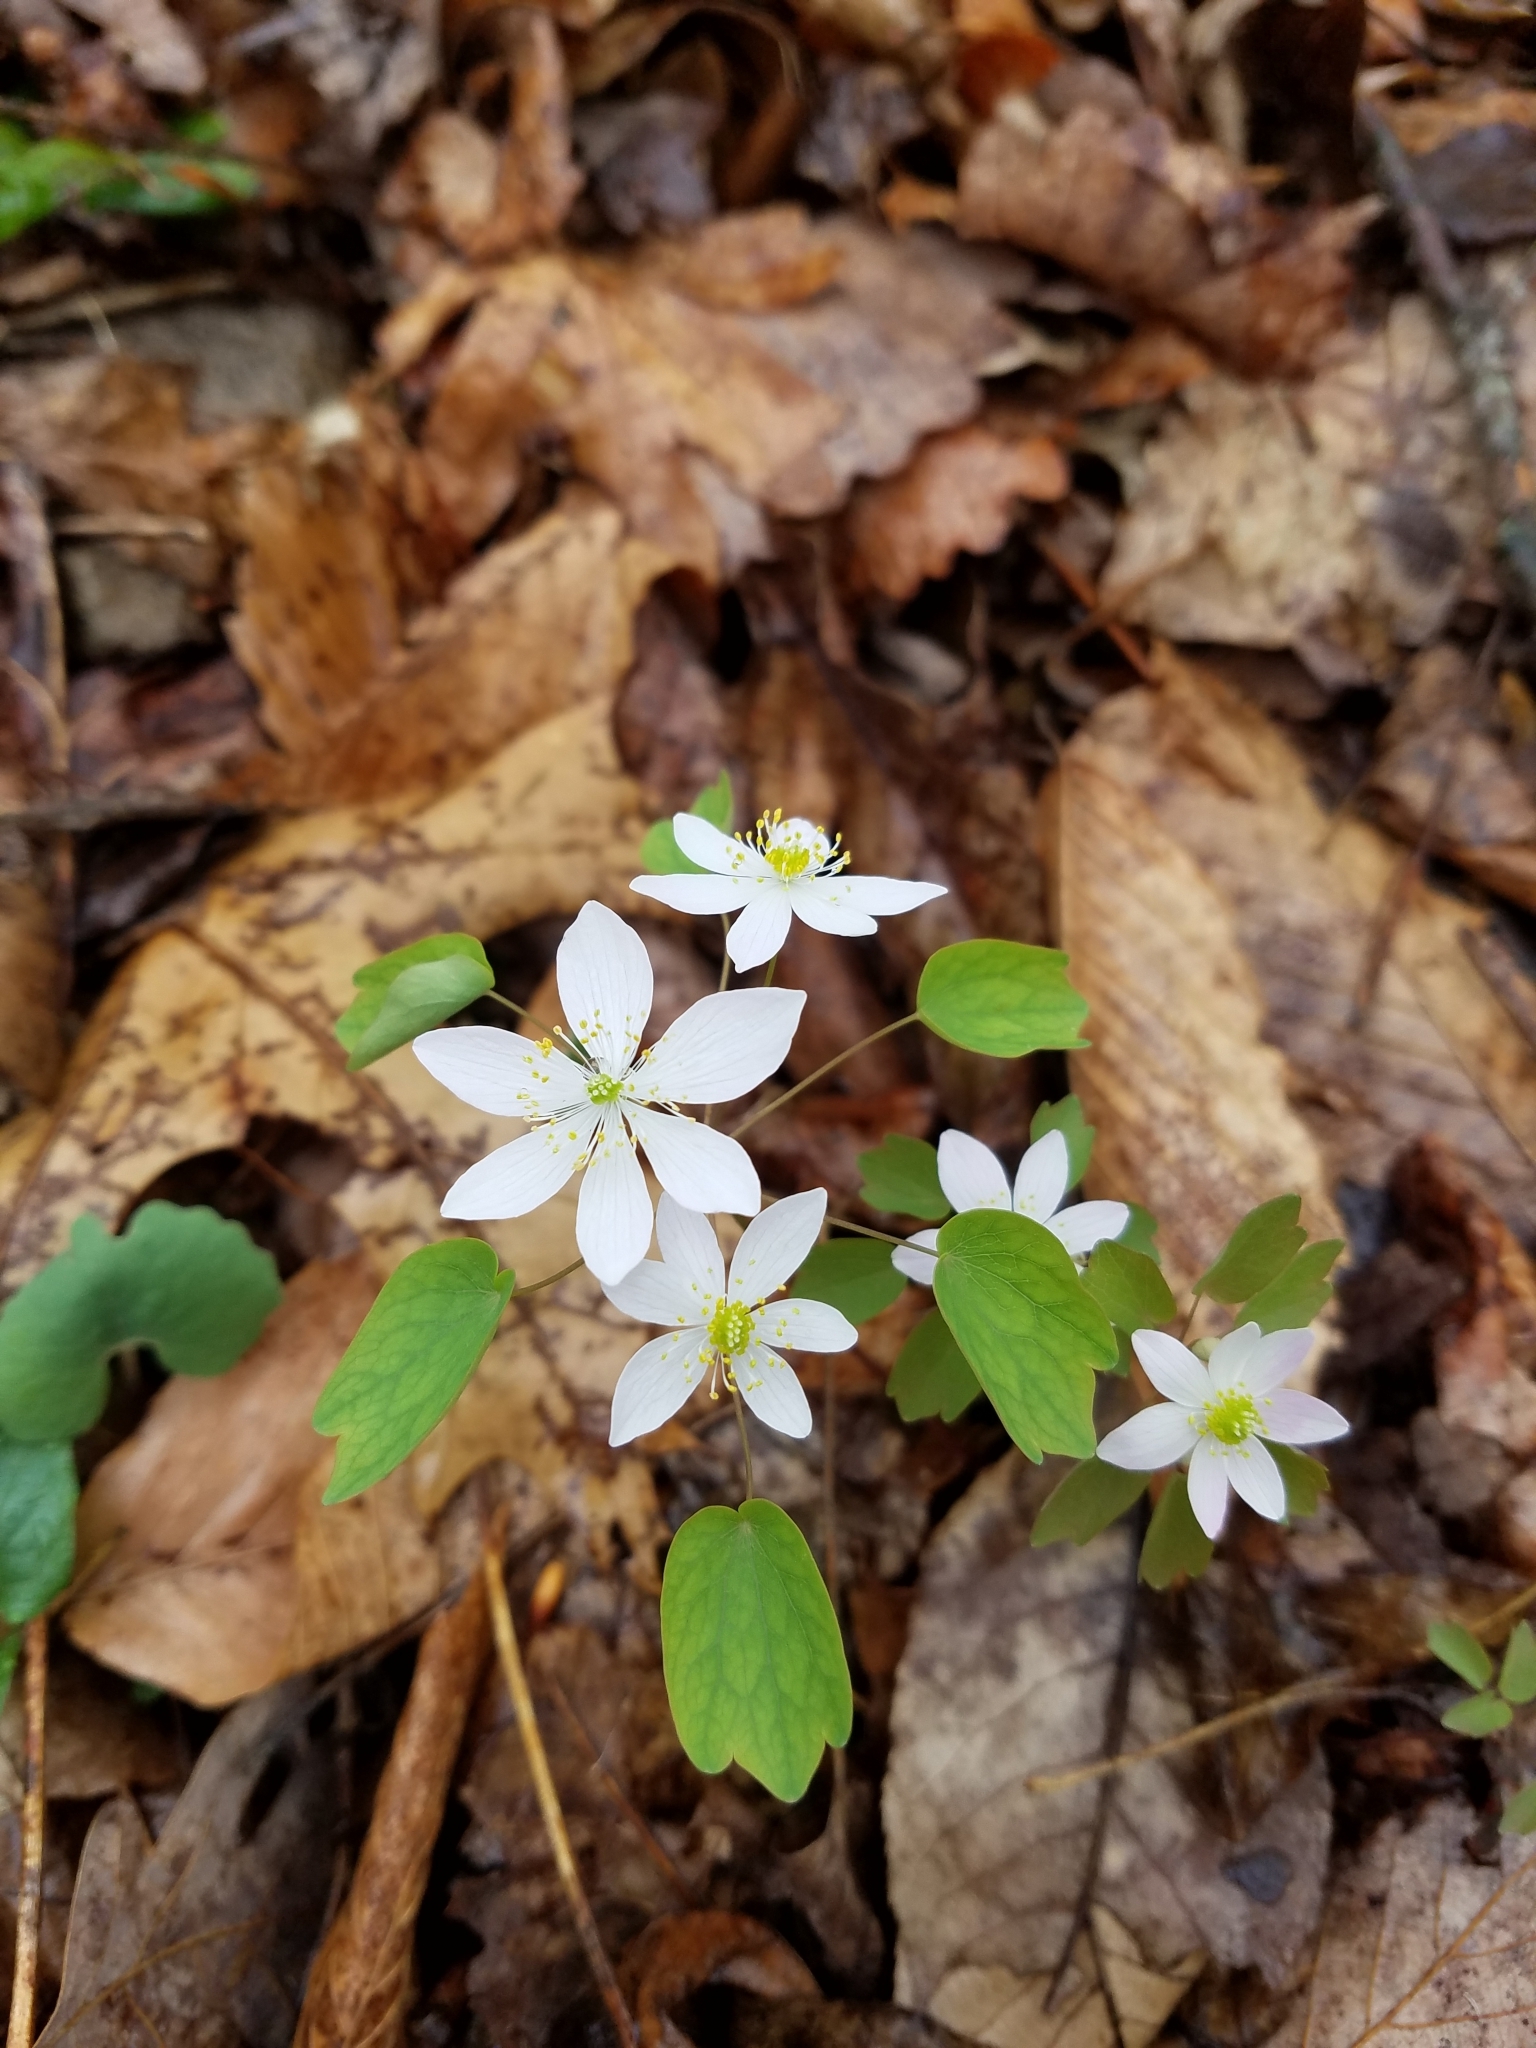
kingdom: Plantae
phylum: Tracheophyta
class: Magnoliopsida
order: Ranunculales
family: Ranunculaceae
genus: Thalictrum
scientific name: Thalictrum thalictroides
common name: Rue-anemone
